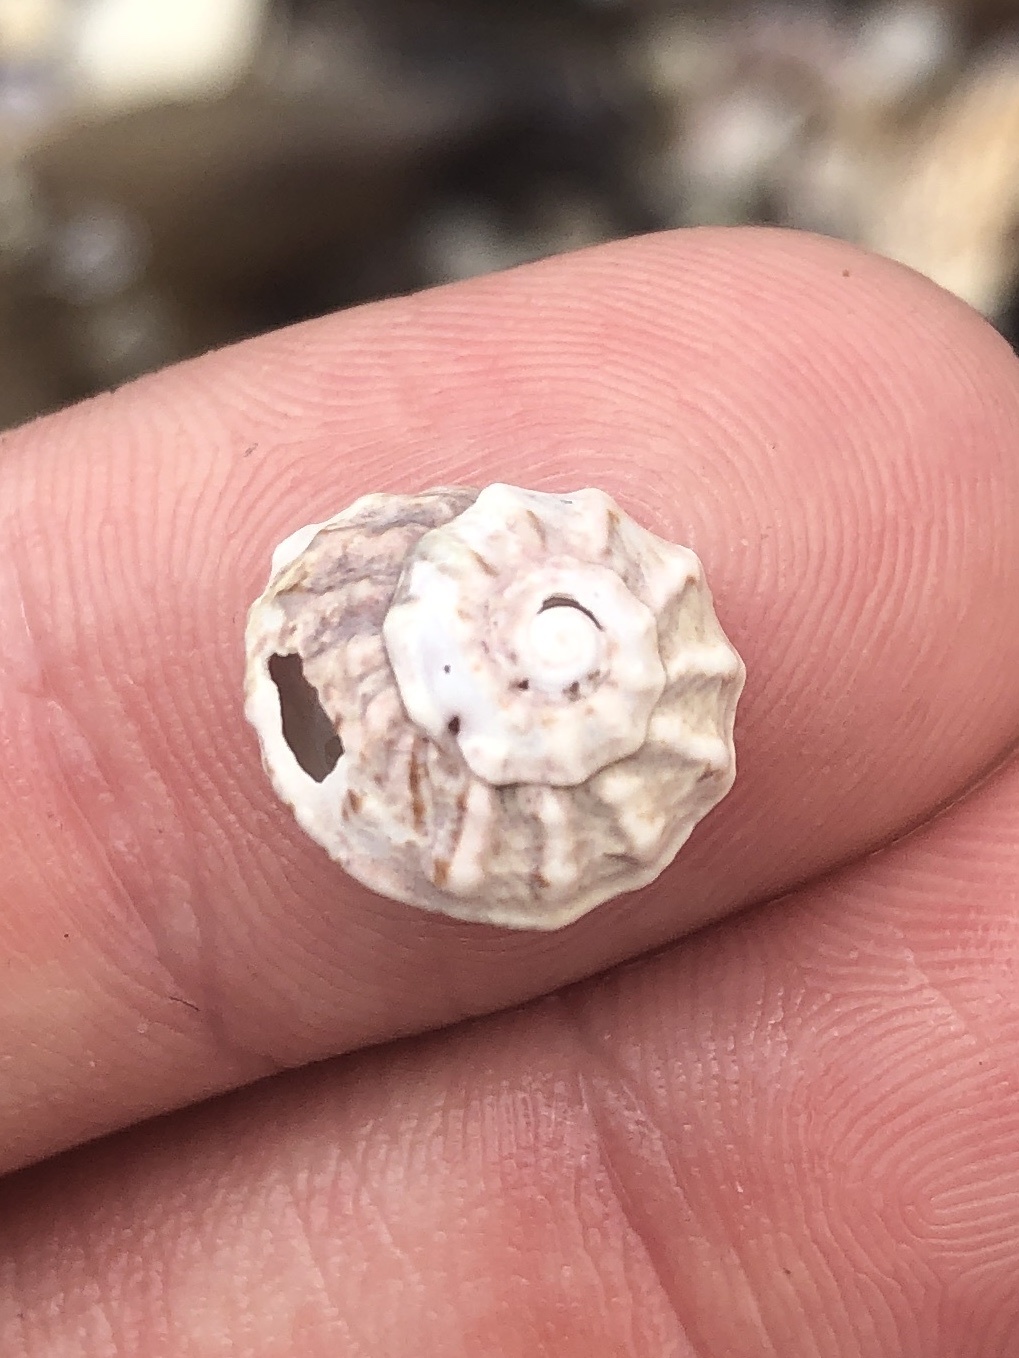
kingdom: Animalia
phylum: Mollusca
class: Gastropoda
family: Modulidae
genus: Modulus
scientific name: Modulus modulus
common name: Atlantic modulus
